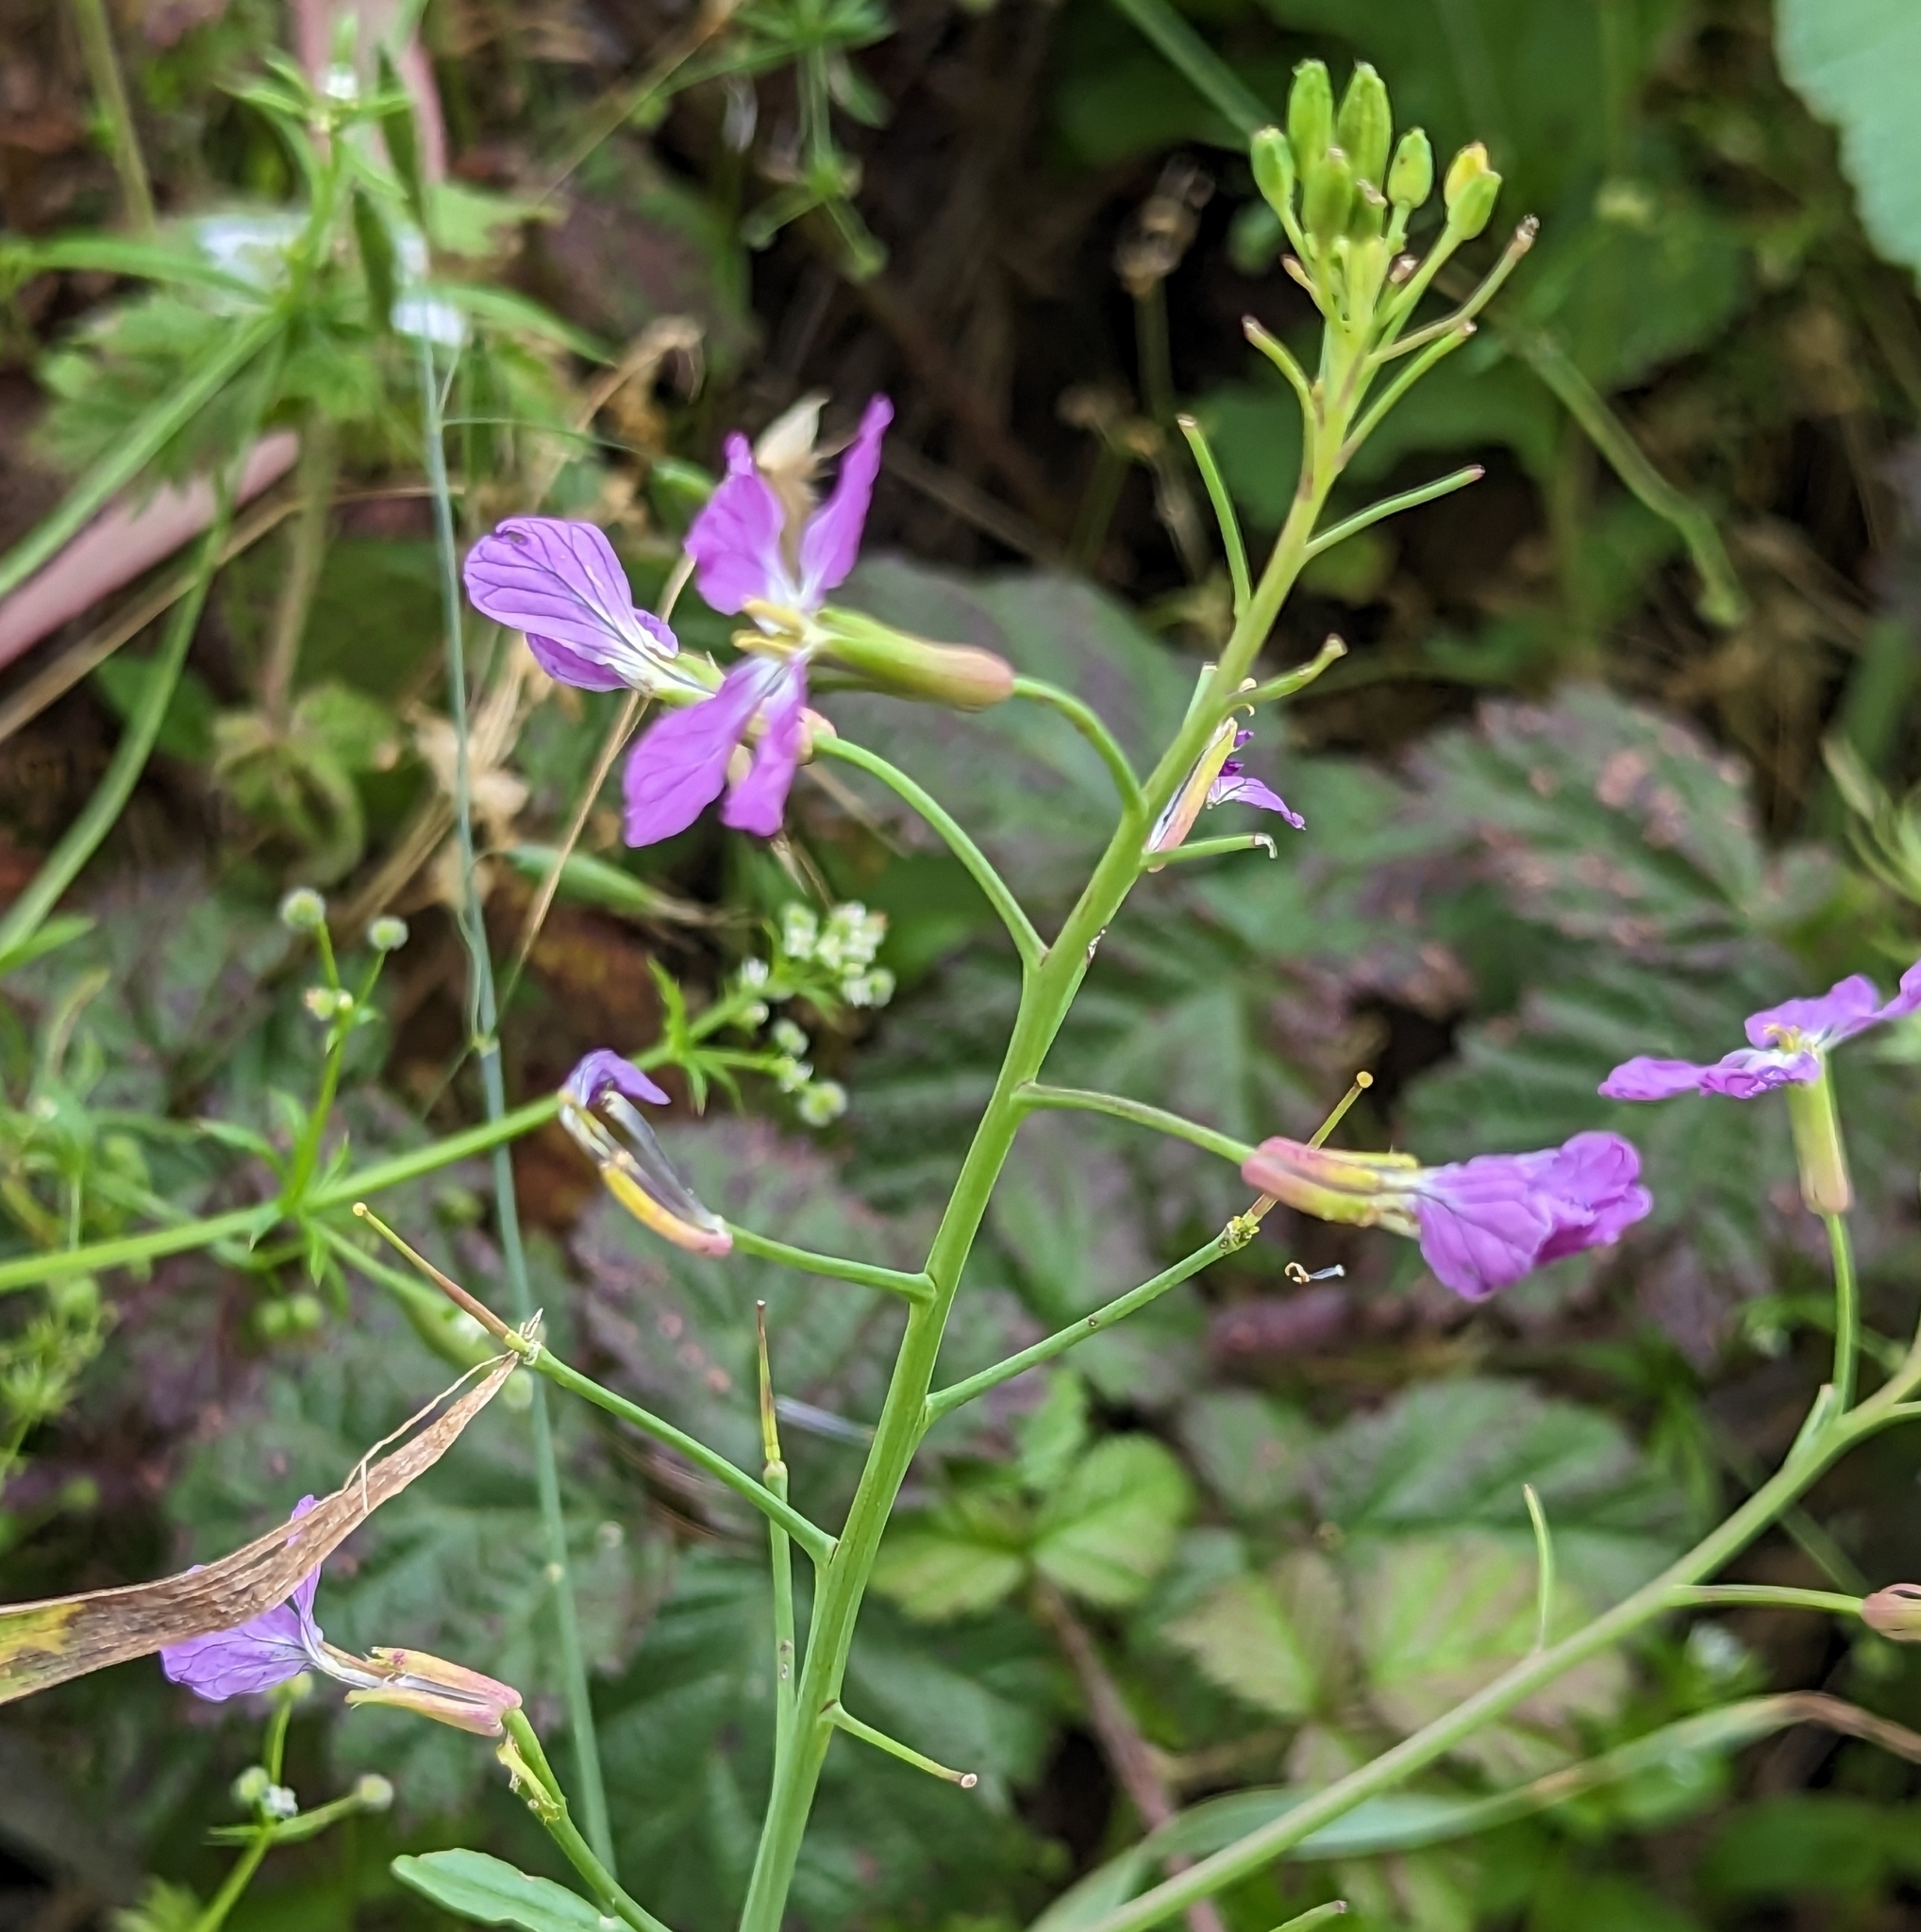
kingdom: Plantae
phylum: Tracheophyta
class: Magnoliopsida
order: Brassicales
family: Brassicaceae
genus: Raphanus
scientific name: Raphanus sativus
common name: Cultivated radish
